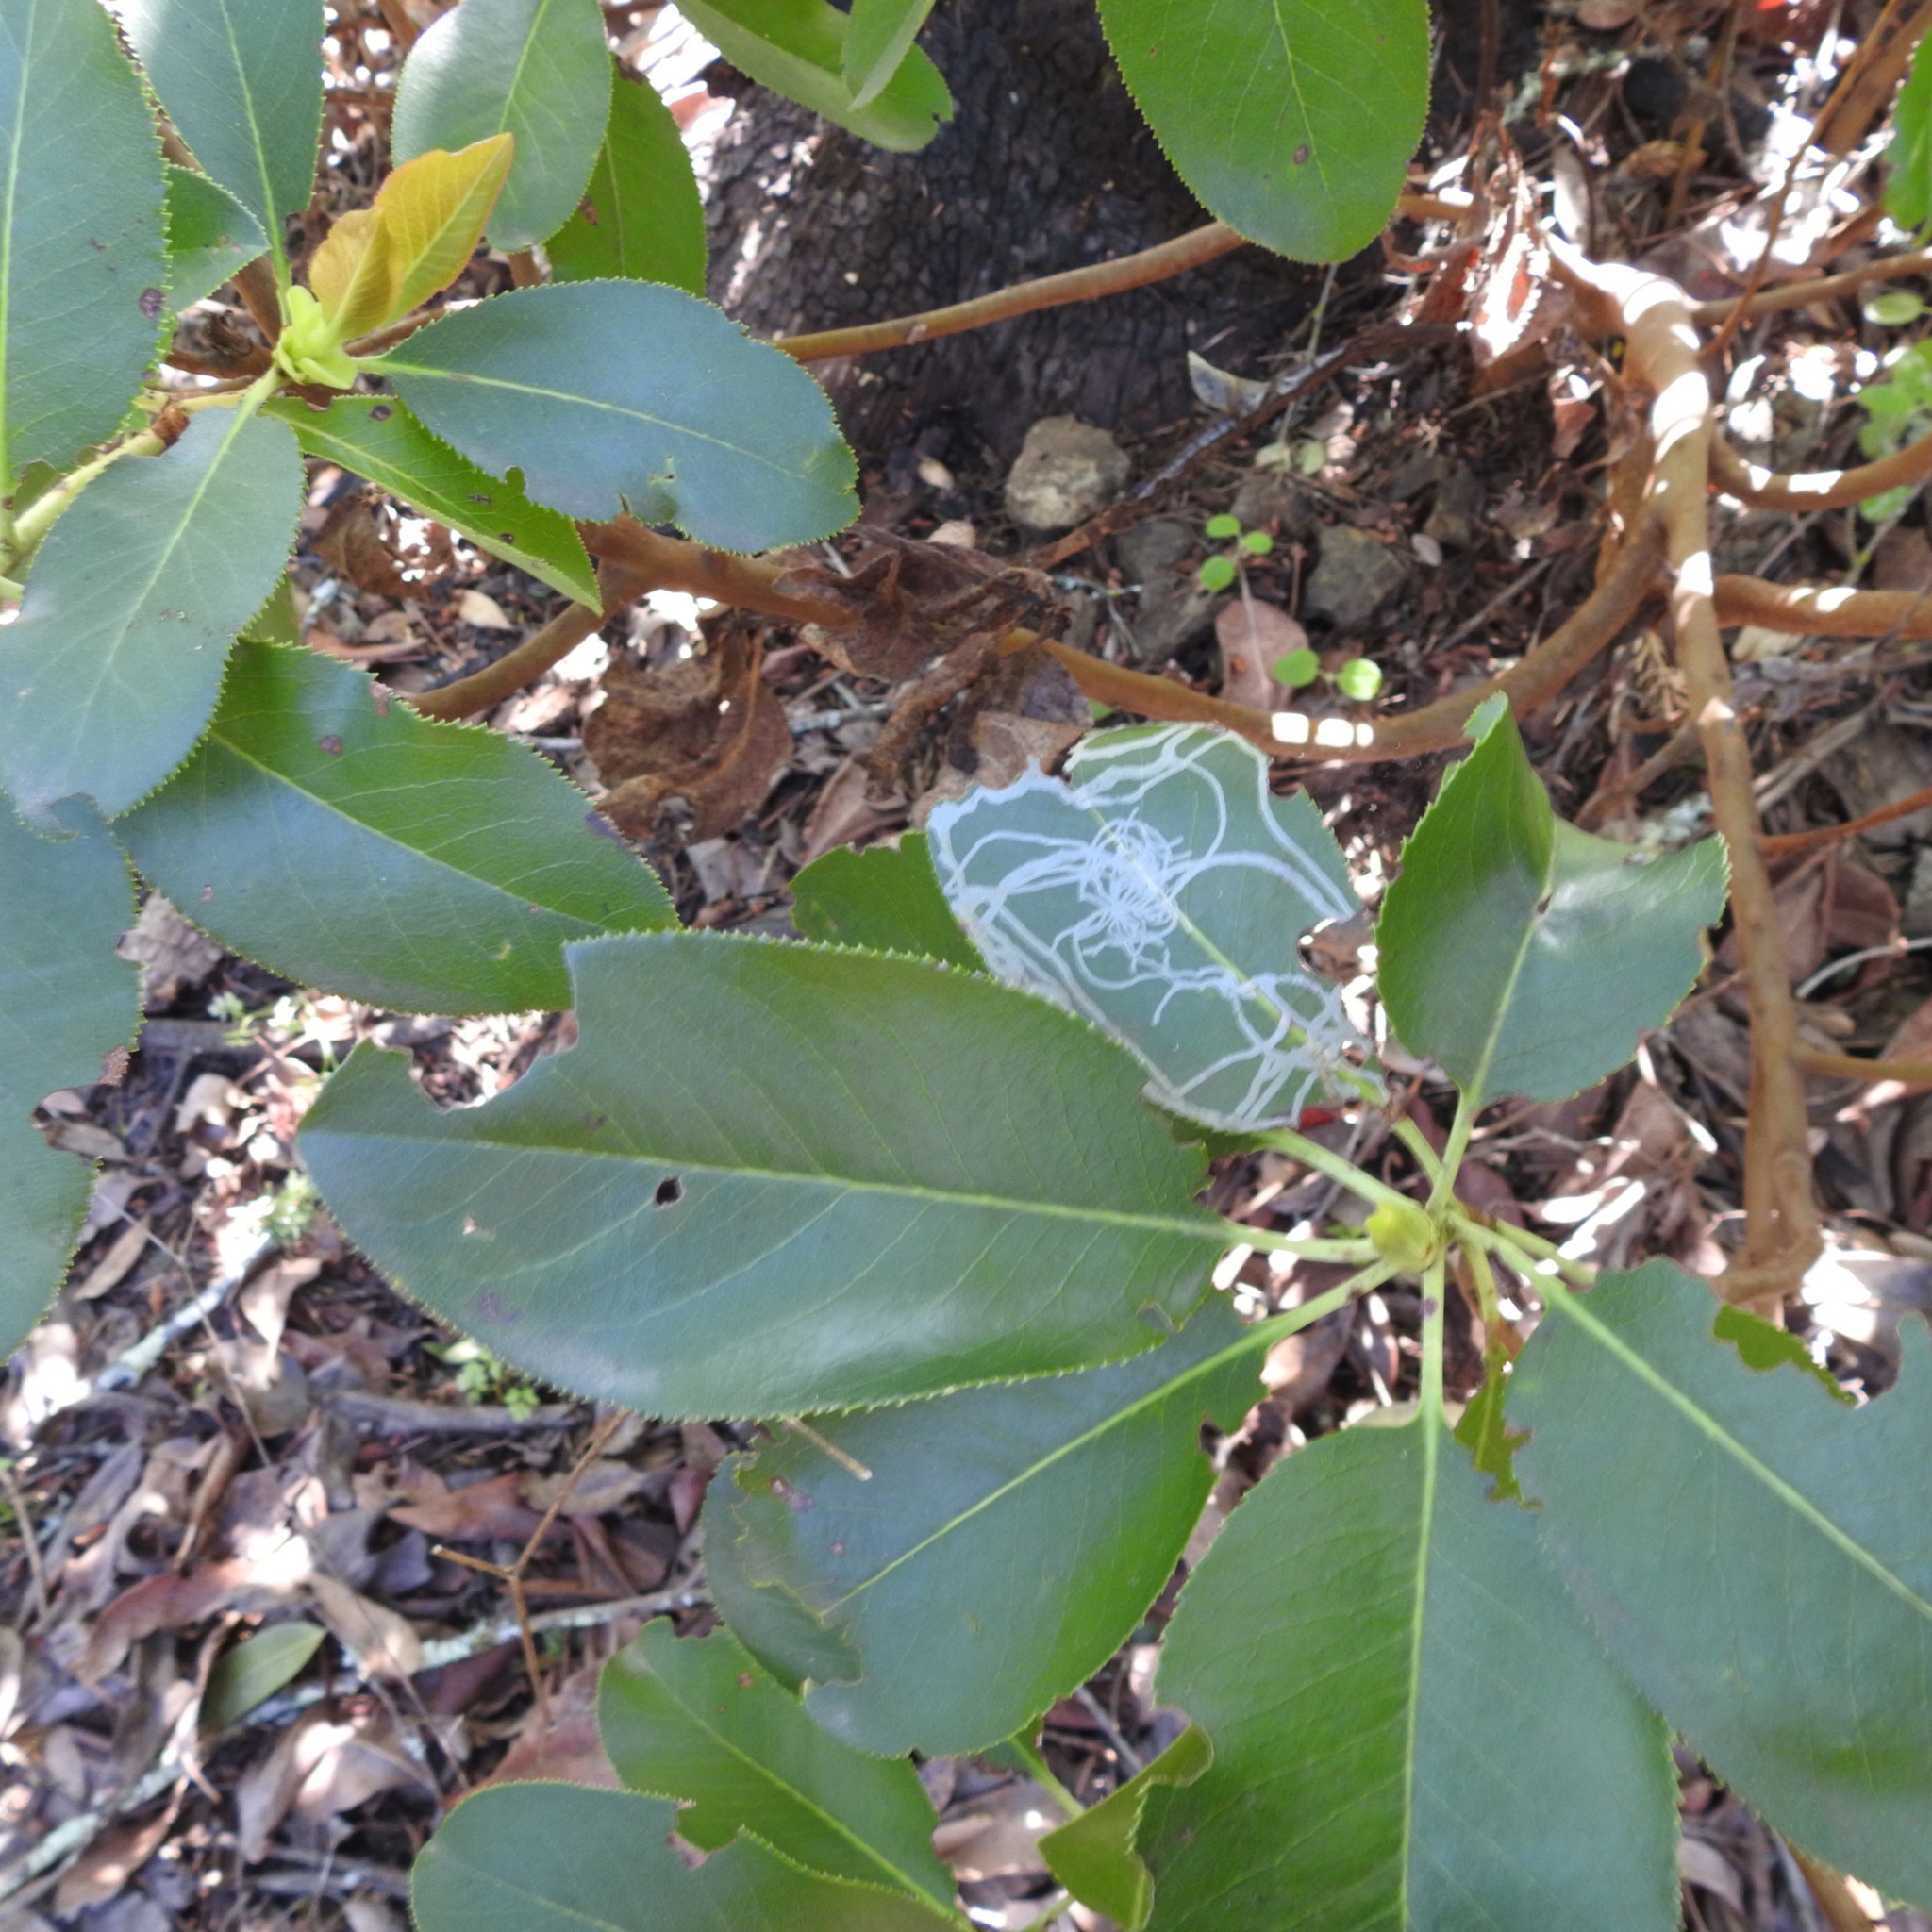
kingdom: Plantae
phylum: Tracheophyta
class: Magnoliopsida
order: Ericales
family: Ericaceae
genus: Arbutus
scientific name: Arbutus menziesii
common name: Pacific madrone
